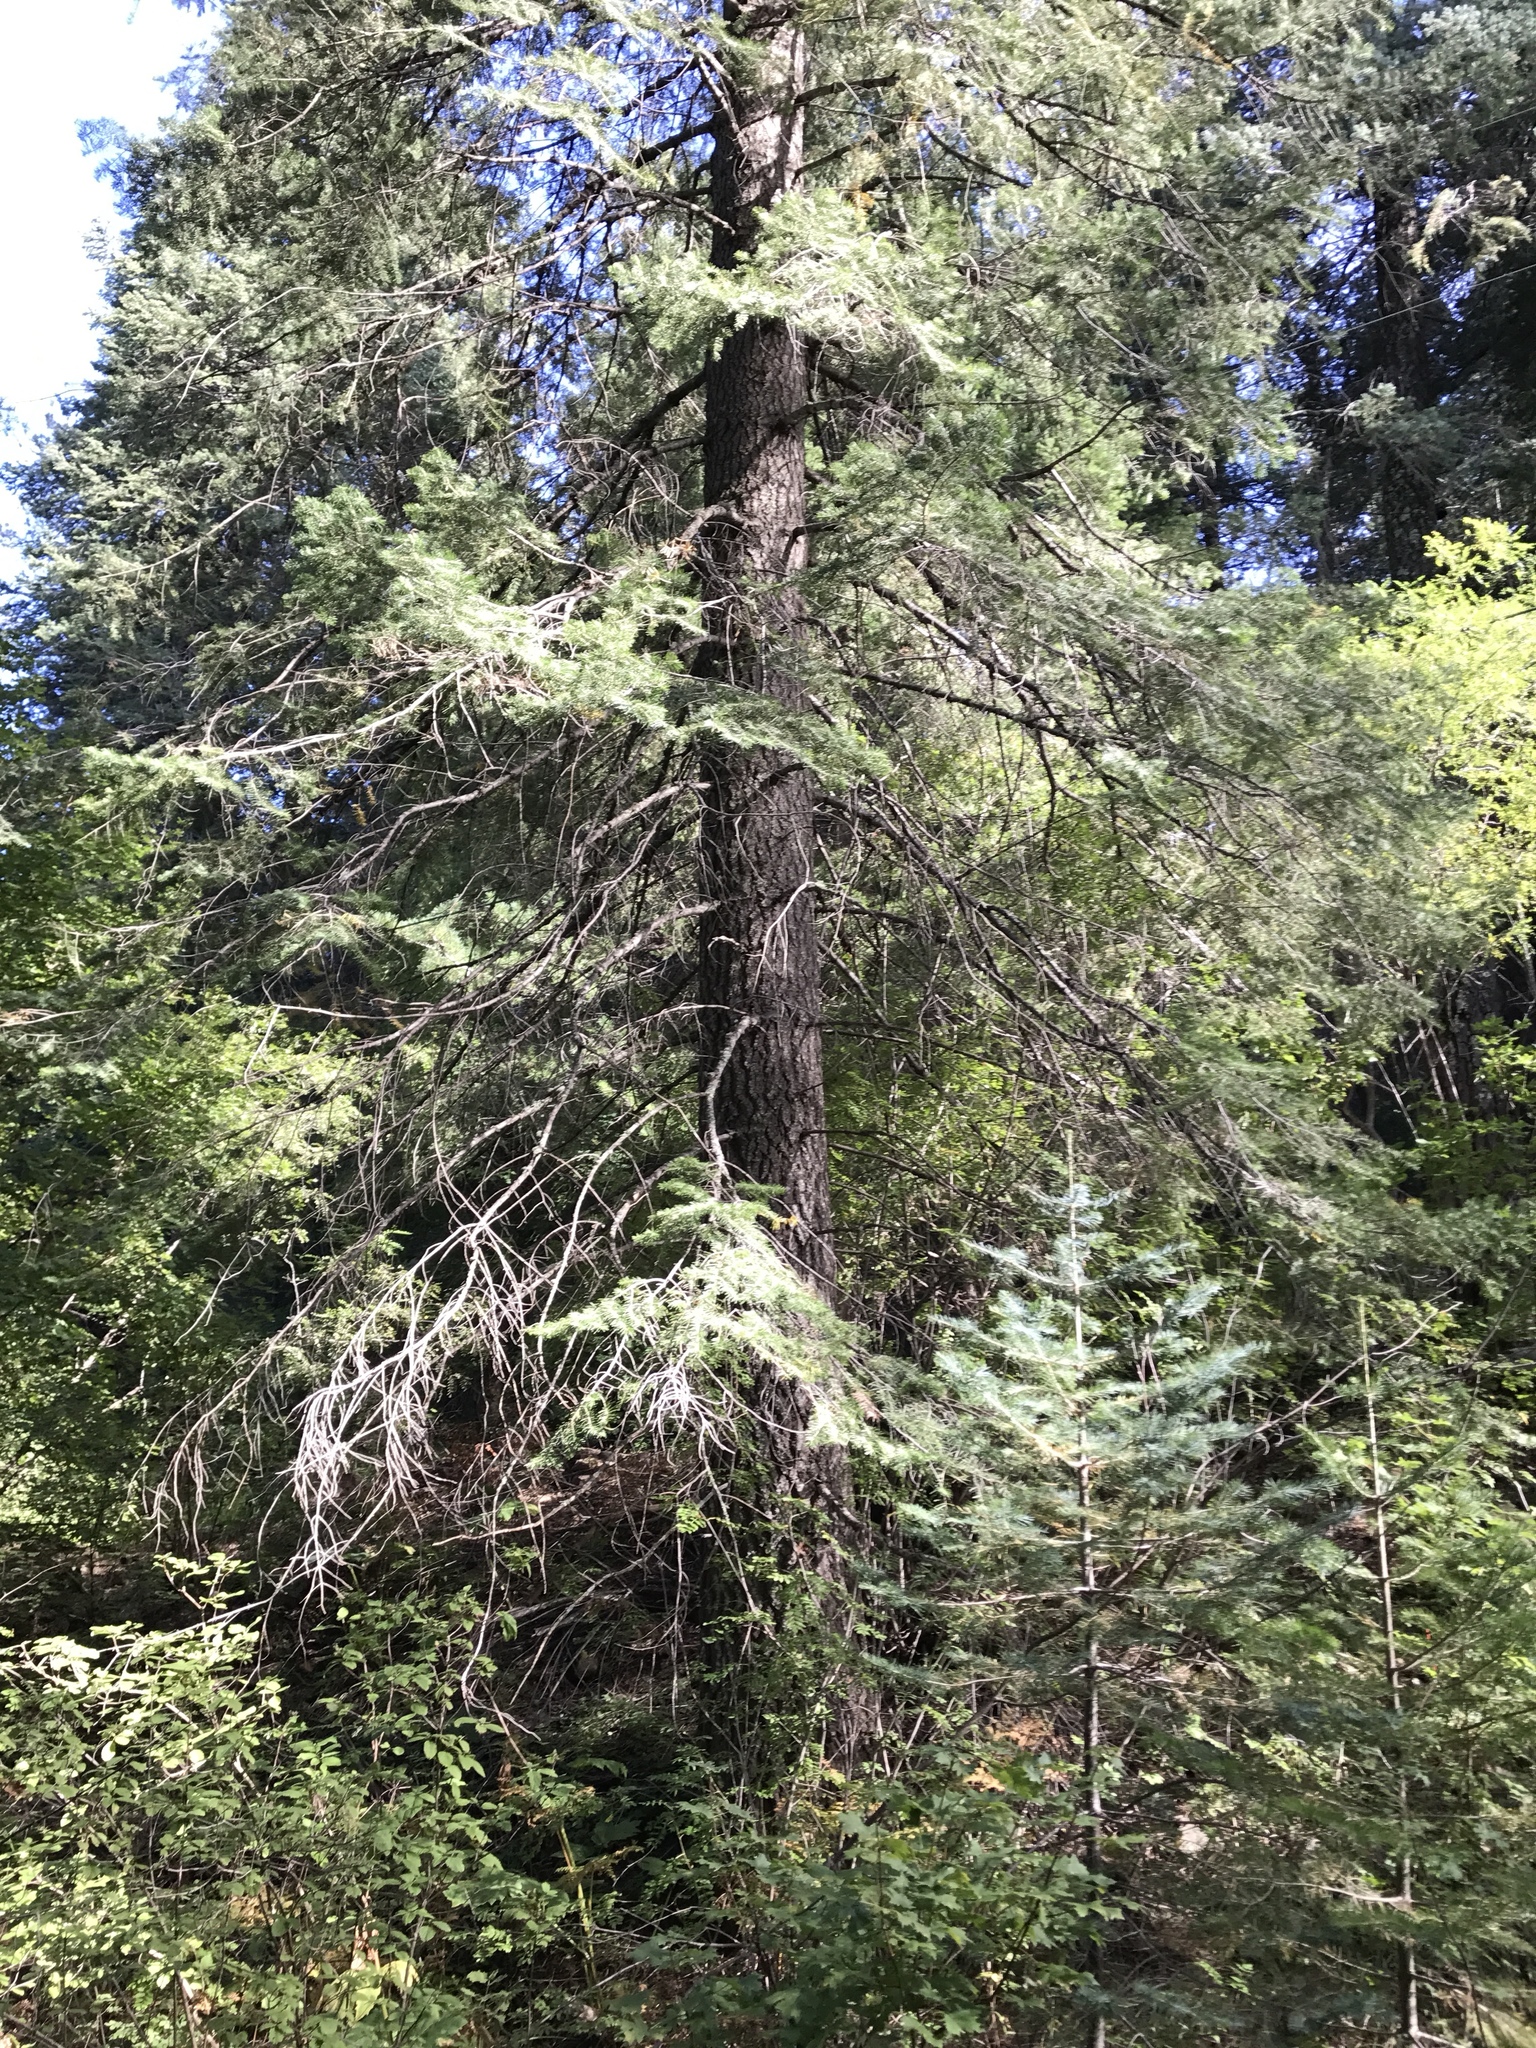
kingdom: Plantae
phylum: Tracheophyta
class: Pinopsida
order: Pinales
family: Pinaceae
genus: Pseudotsuga
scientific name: Pseudotsuga menziesii
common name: Douglas fir
